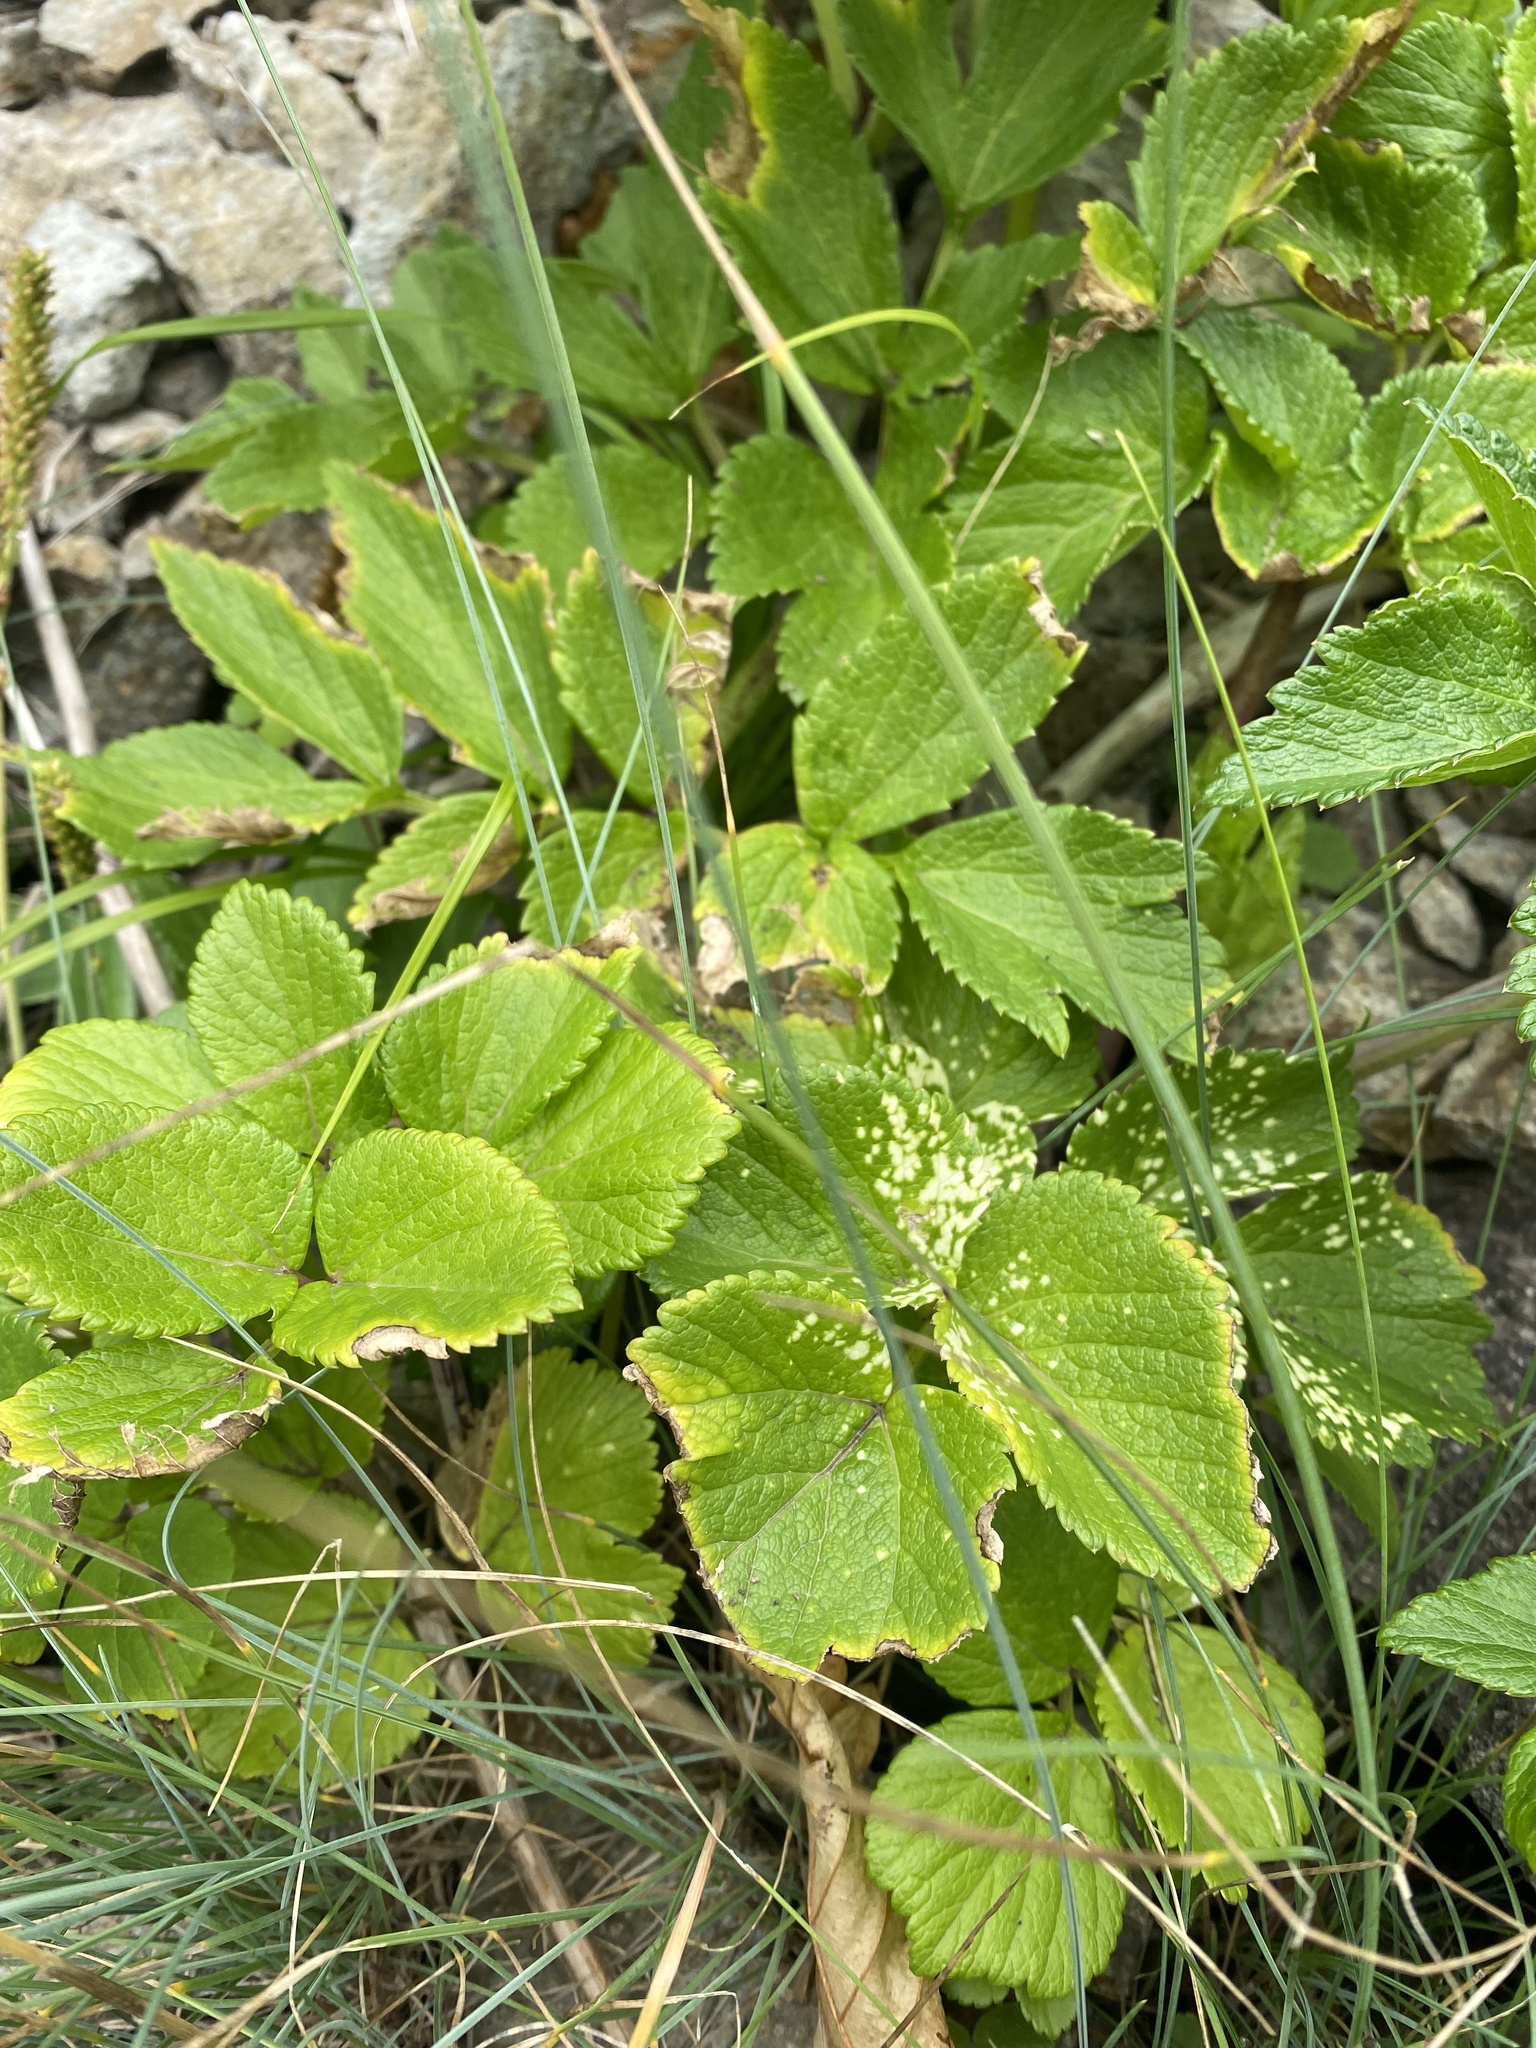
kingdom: Plantae
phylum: Tracheophyta
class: Magnoliopsida
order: Apiales
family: Apiaceae
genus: Ligusticum
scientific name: Ligusticum scothicum
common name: Beach lovage
